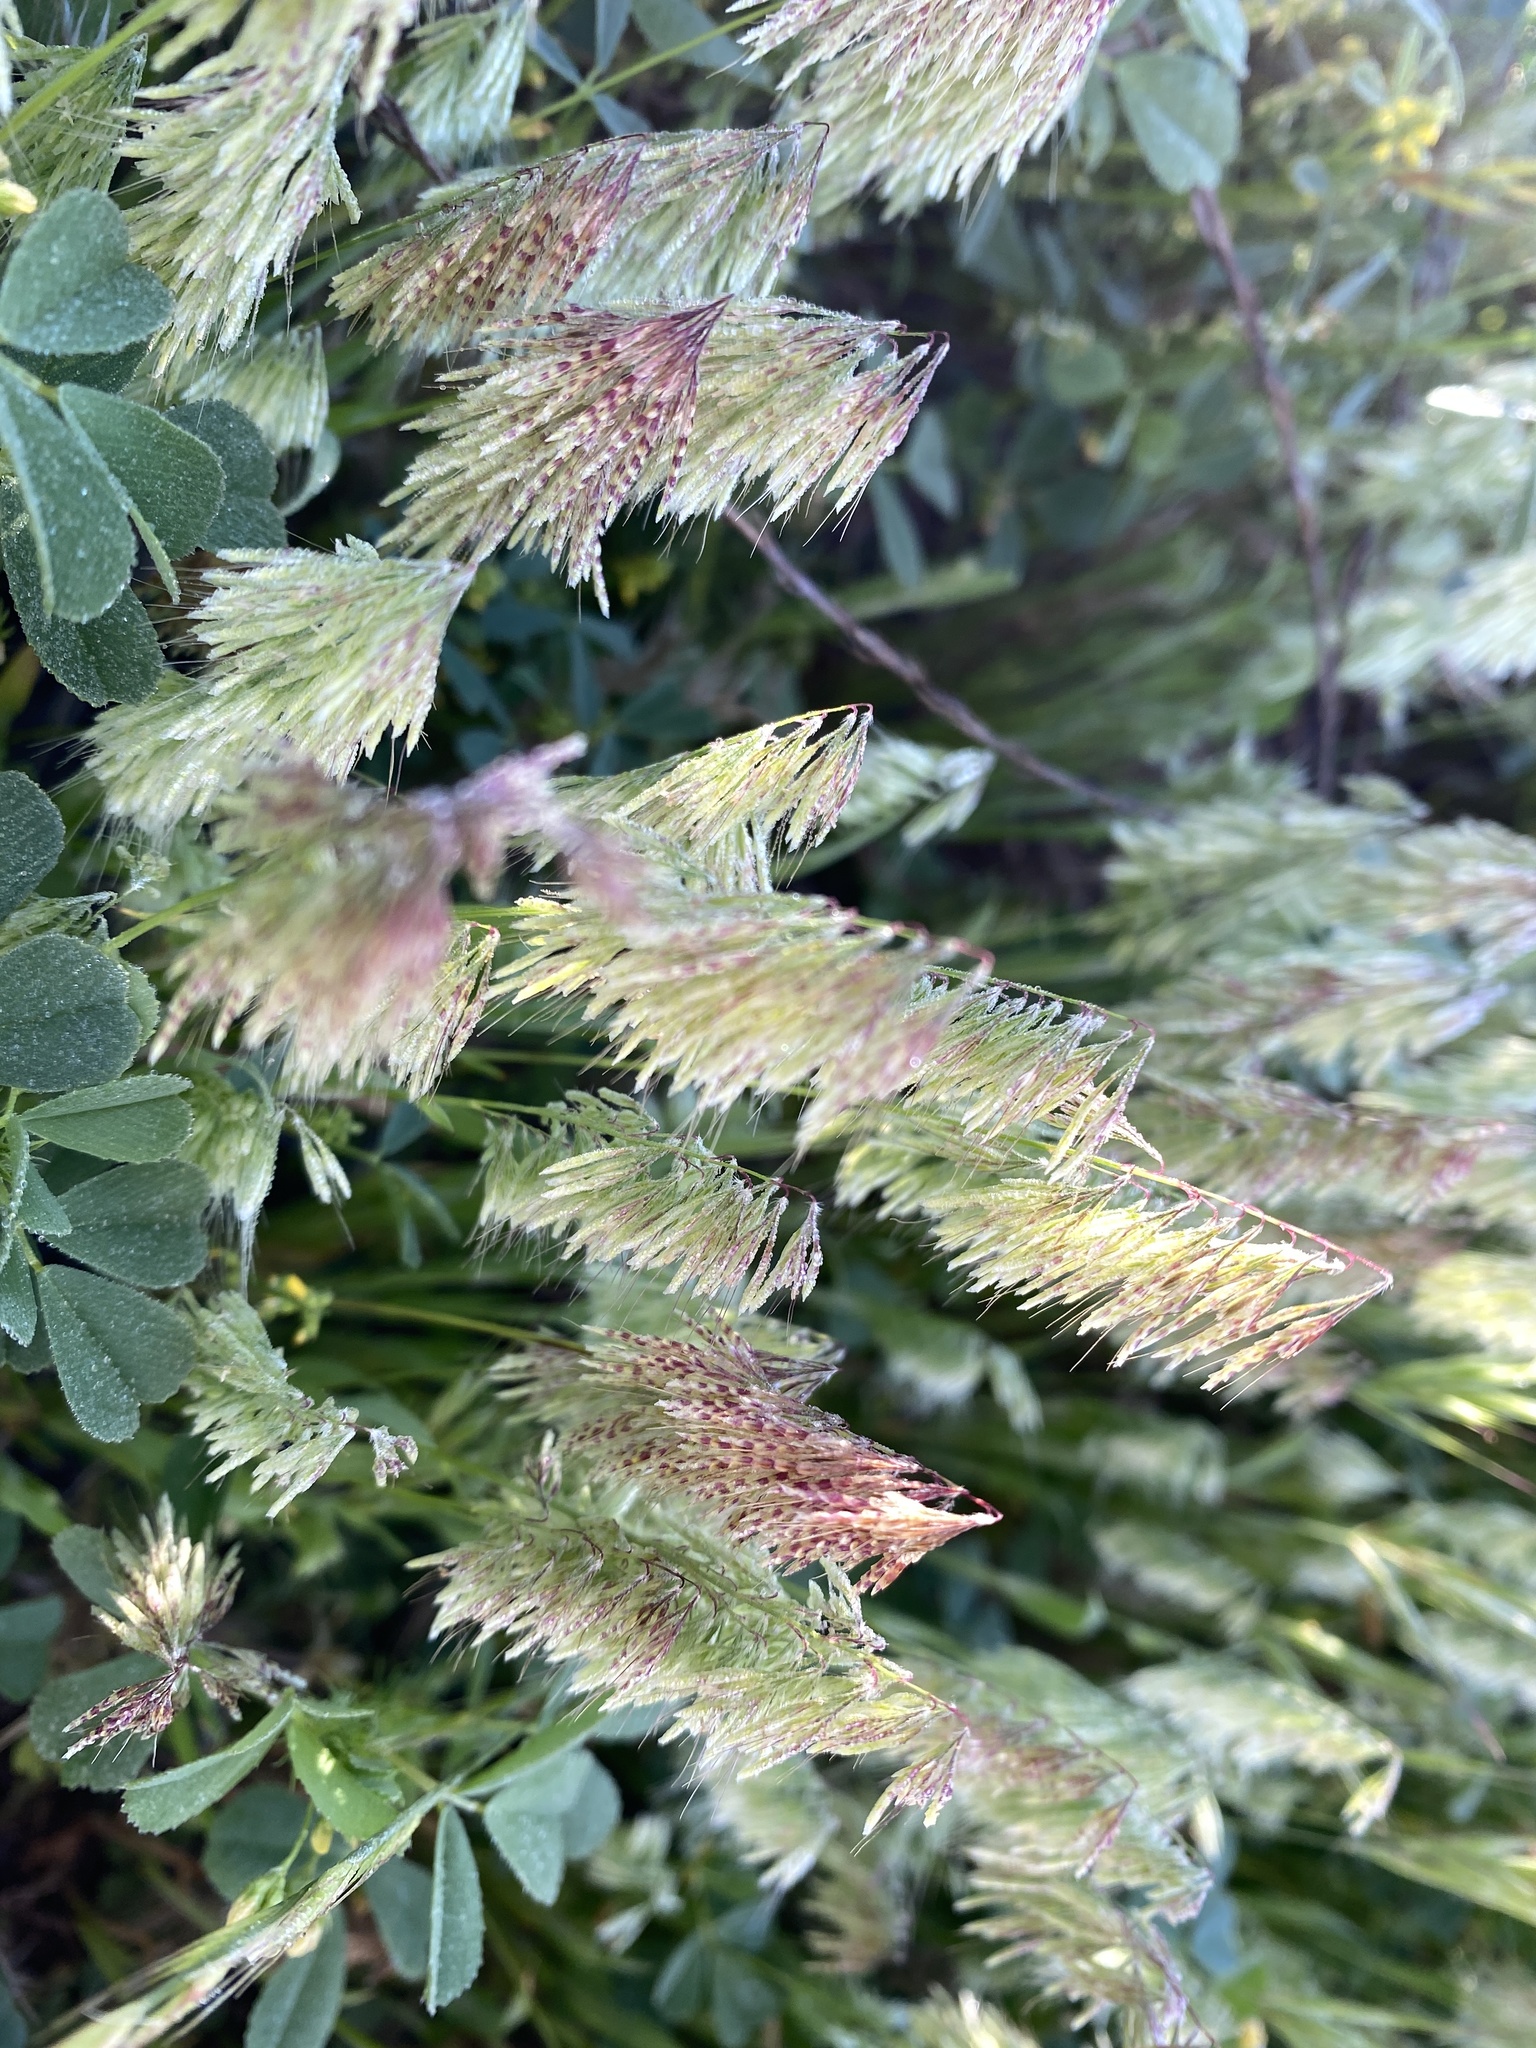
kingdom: Plantae
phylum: Tracheophyta
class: Liliopsida
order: Poales
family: Poaceae
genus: Lamarckia
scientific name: Lamarckia aurea
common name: Golden dog's-tail
